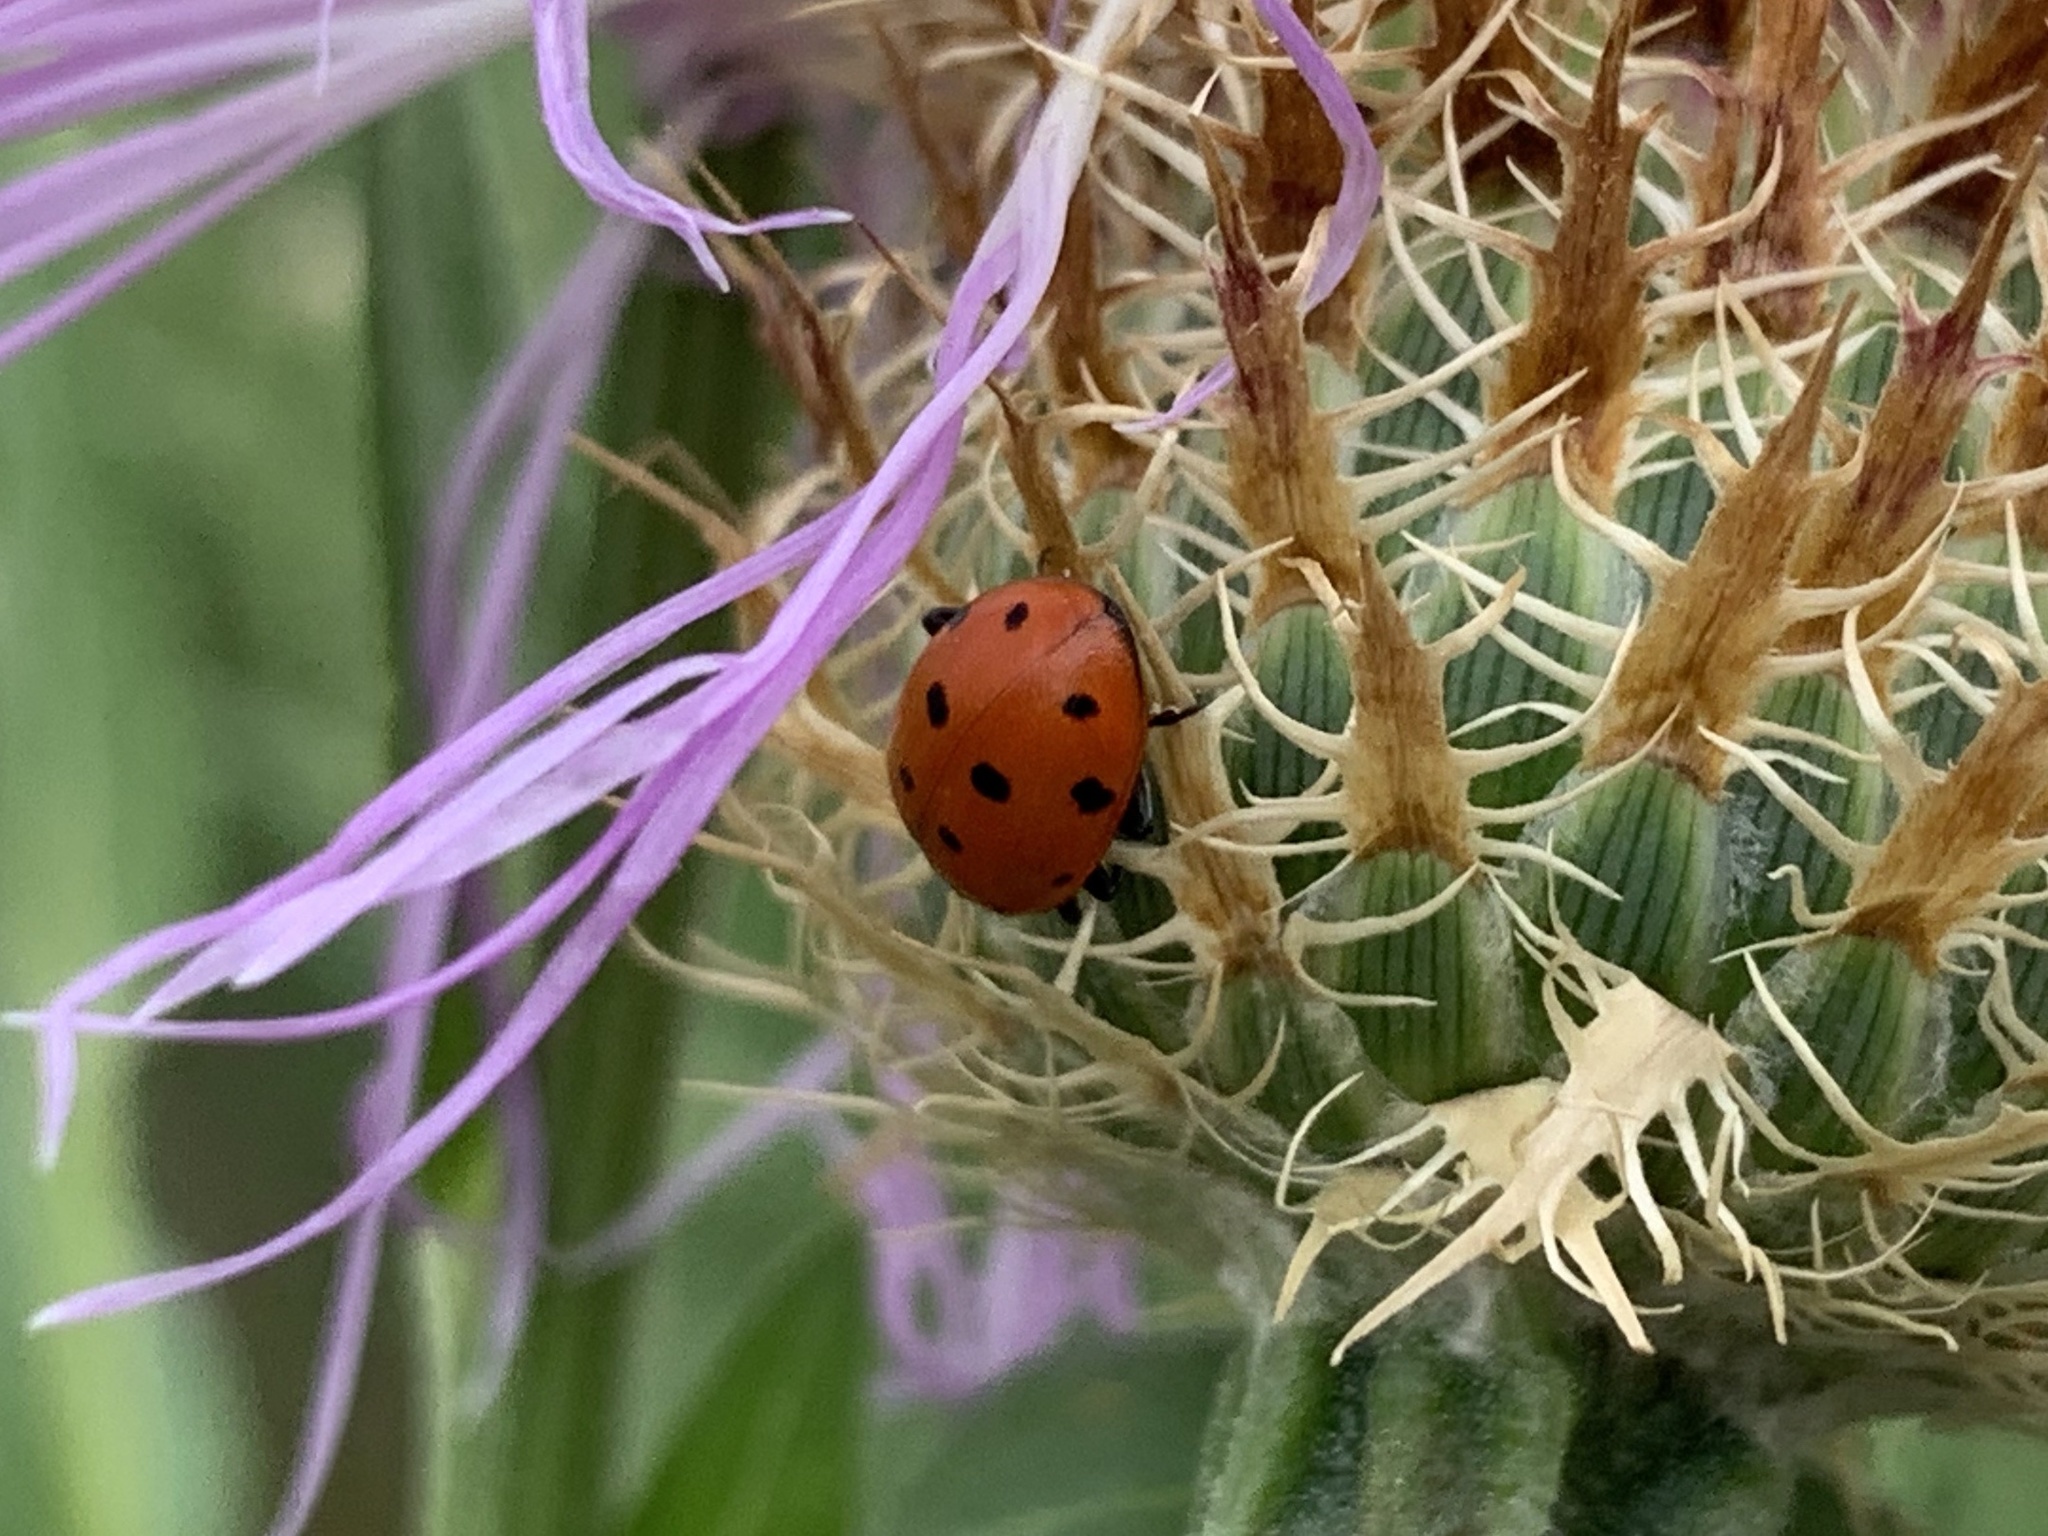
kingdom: Animalia
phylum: Arthropoda
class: Insecta
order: Coleoptera
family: Coccinellidae
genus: Hippodamia
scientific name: Hippodamia convergens
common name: Convergent lady beetle
